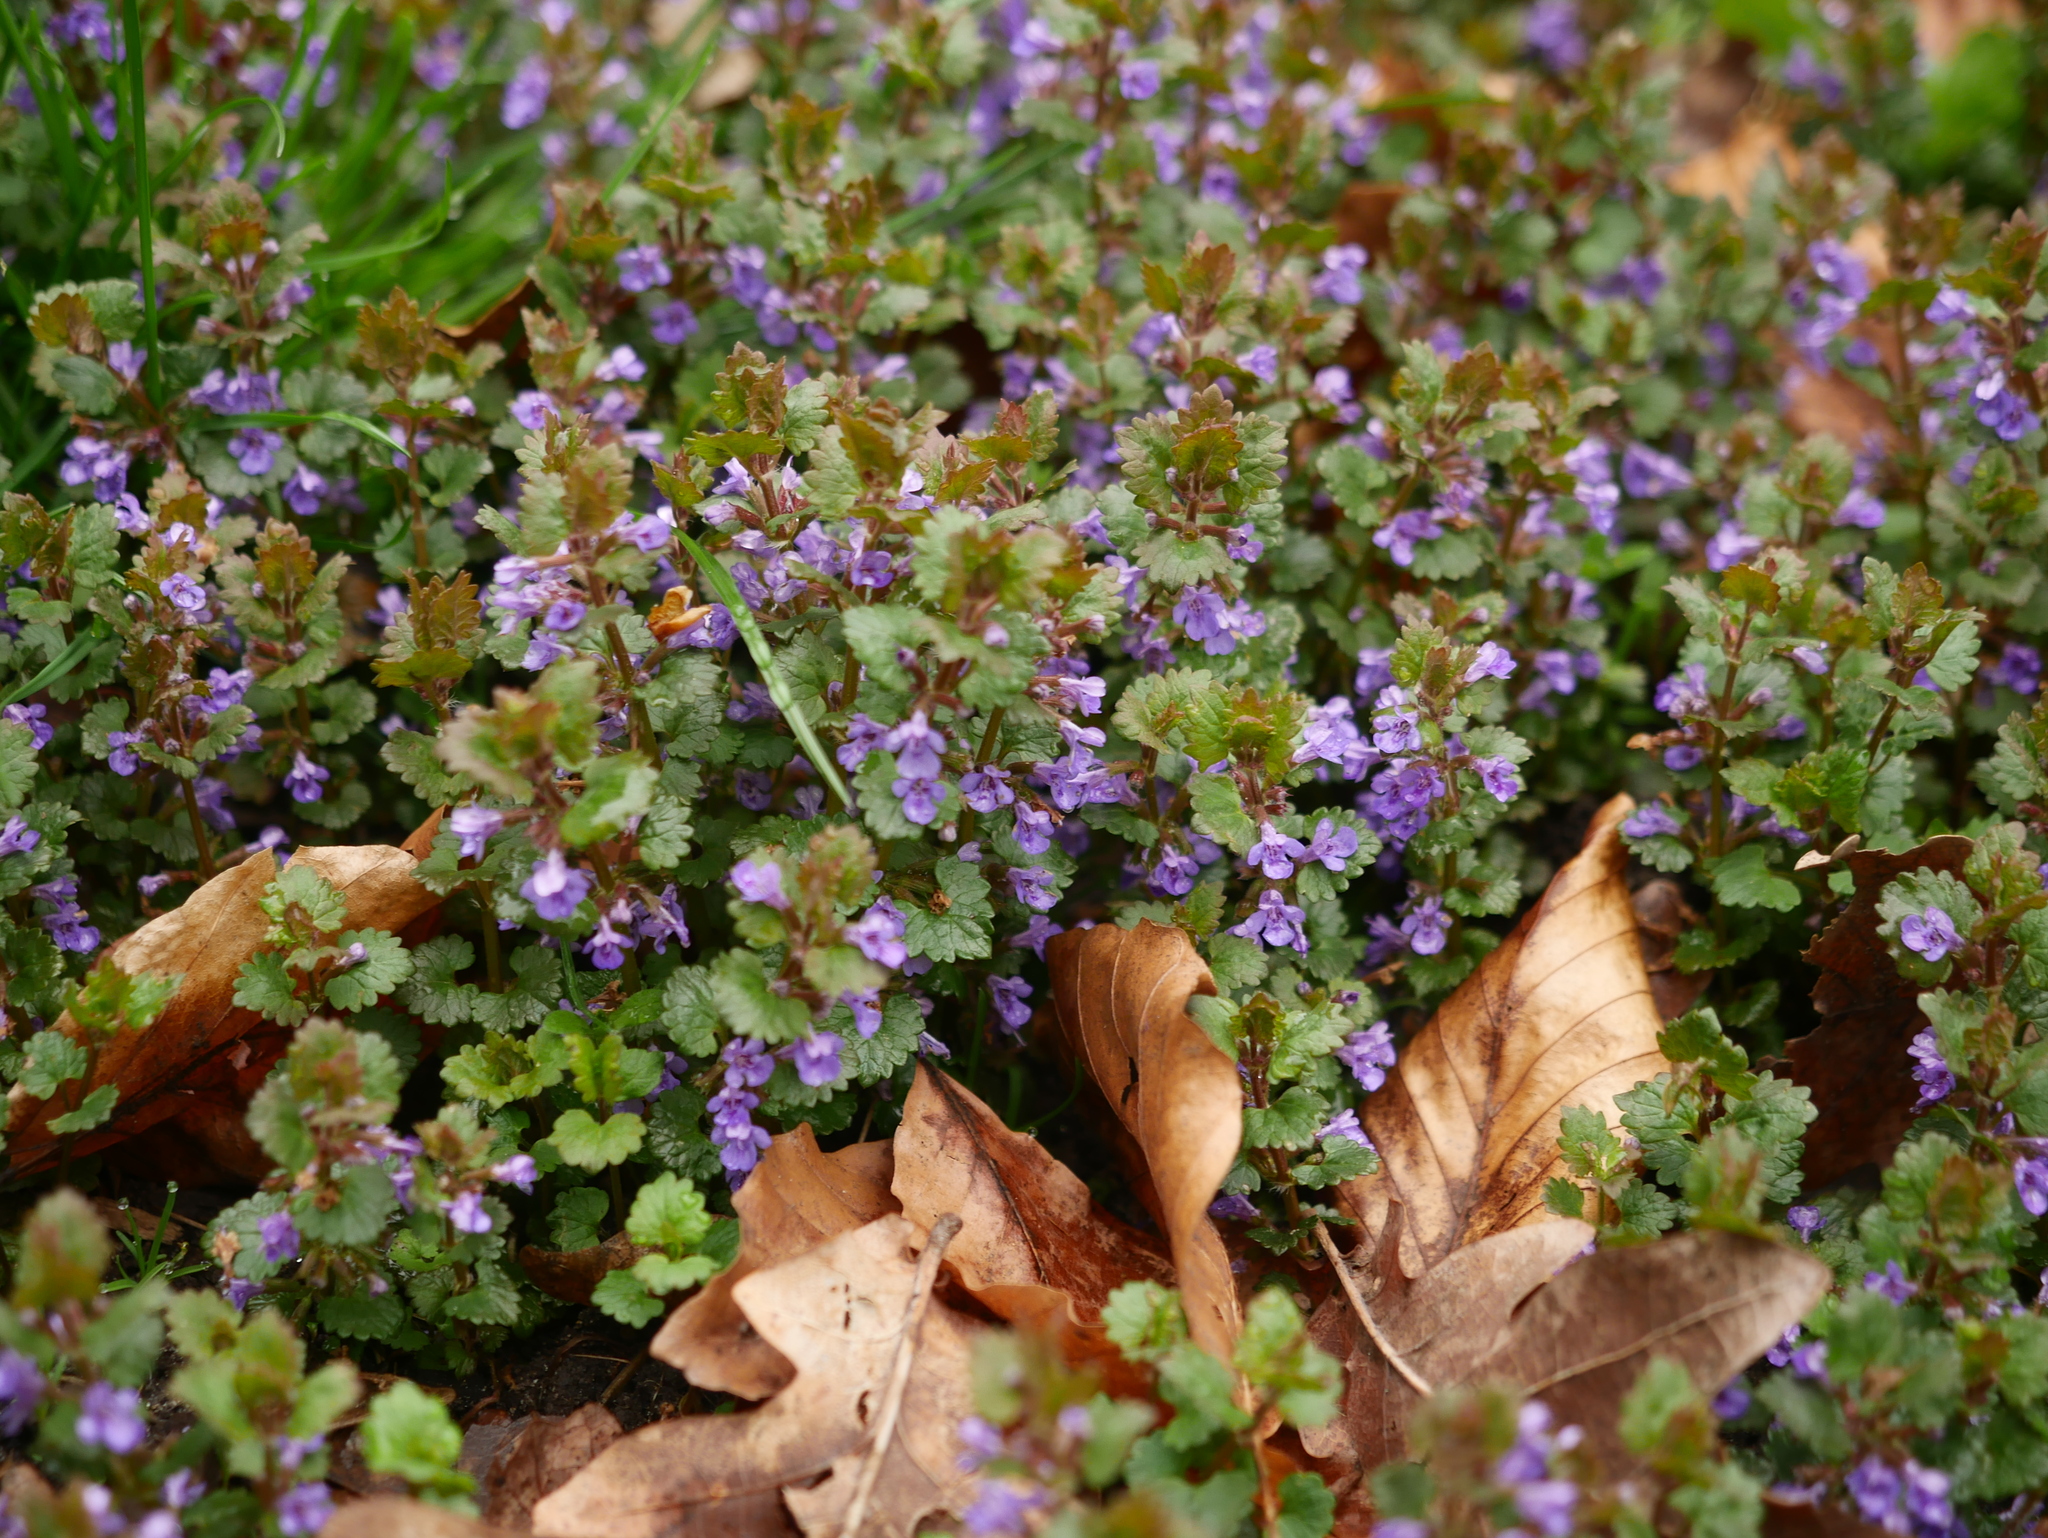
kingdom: Plantae
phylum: Tracheophyta
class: Magnoliopsida
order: Lamiales
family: Lamiaceae
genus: Glechoma
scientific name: Glechoma hederacea
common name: Ground ivy
